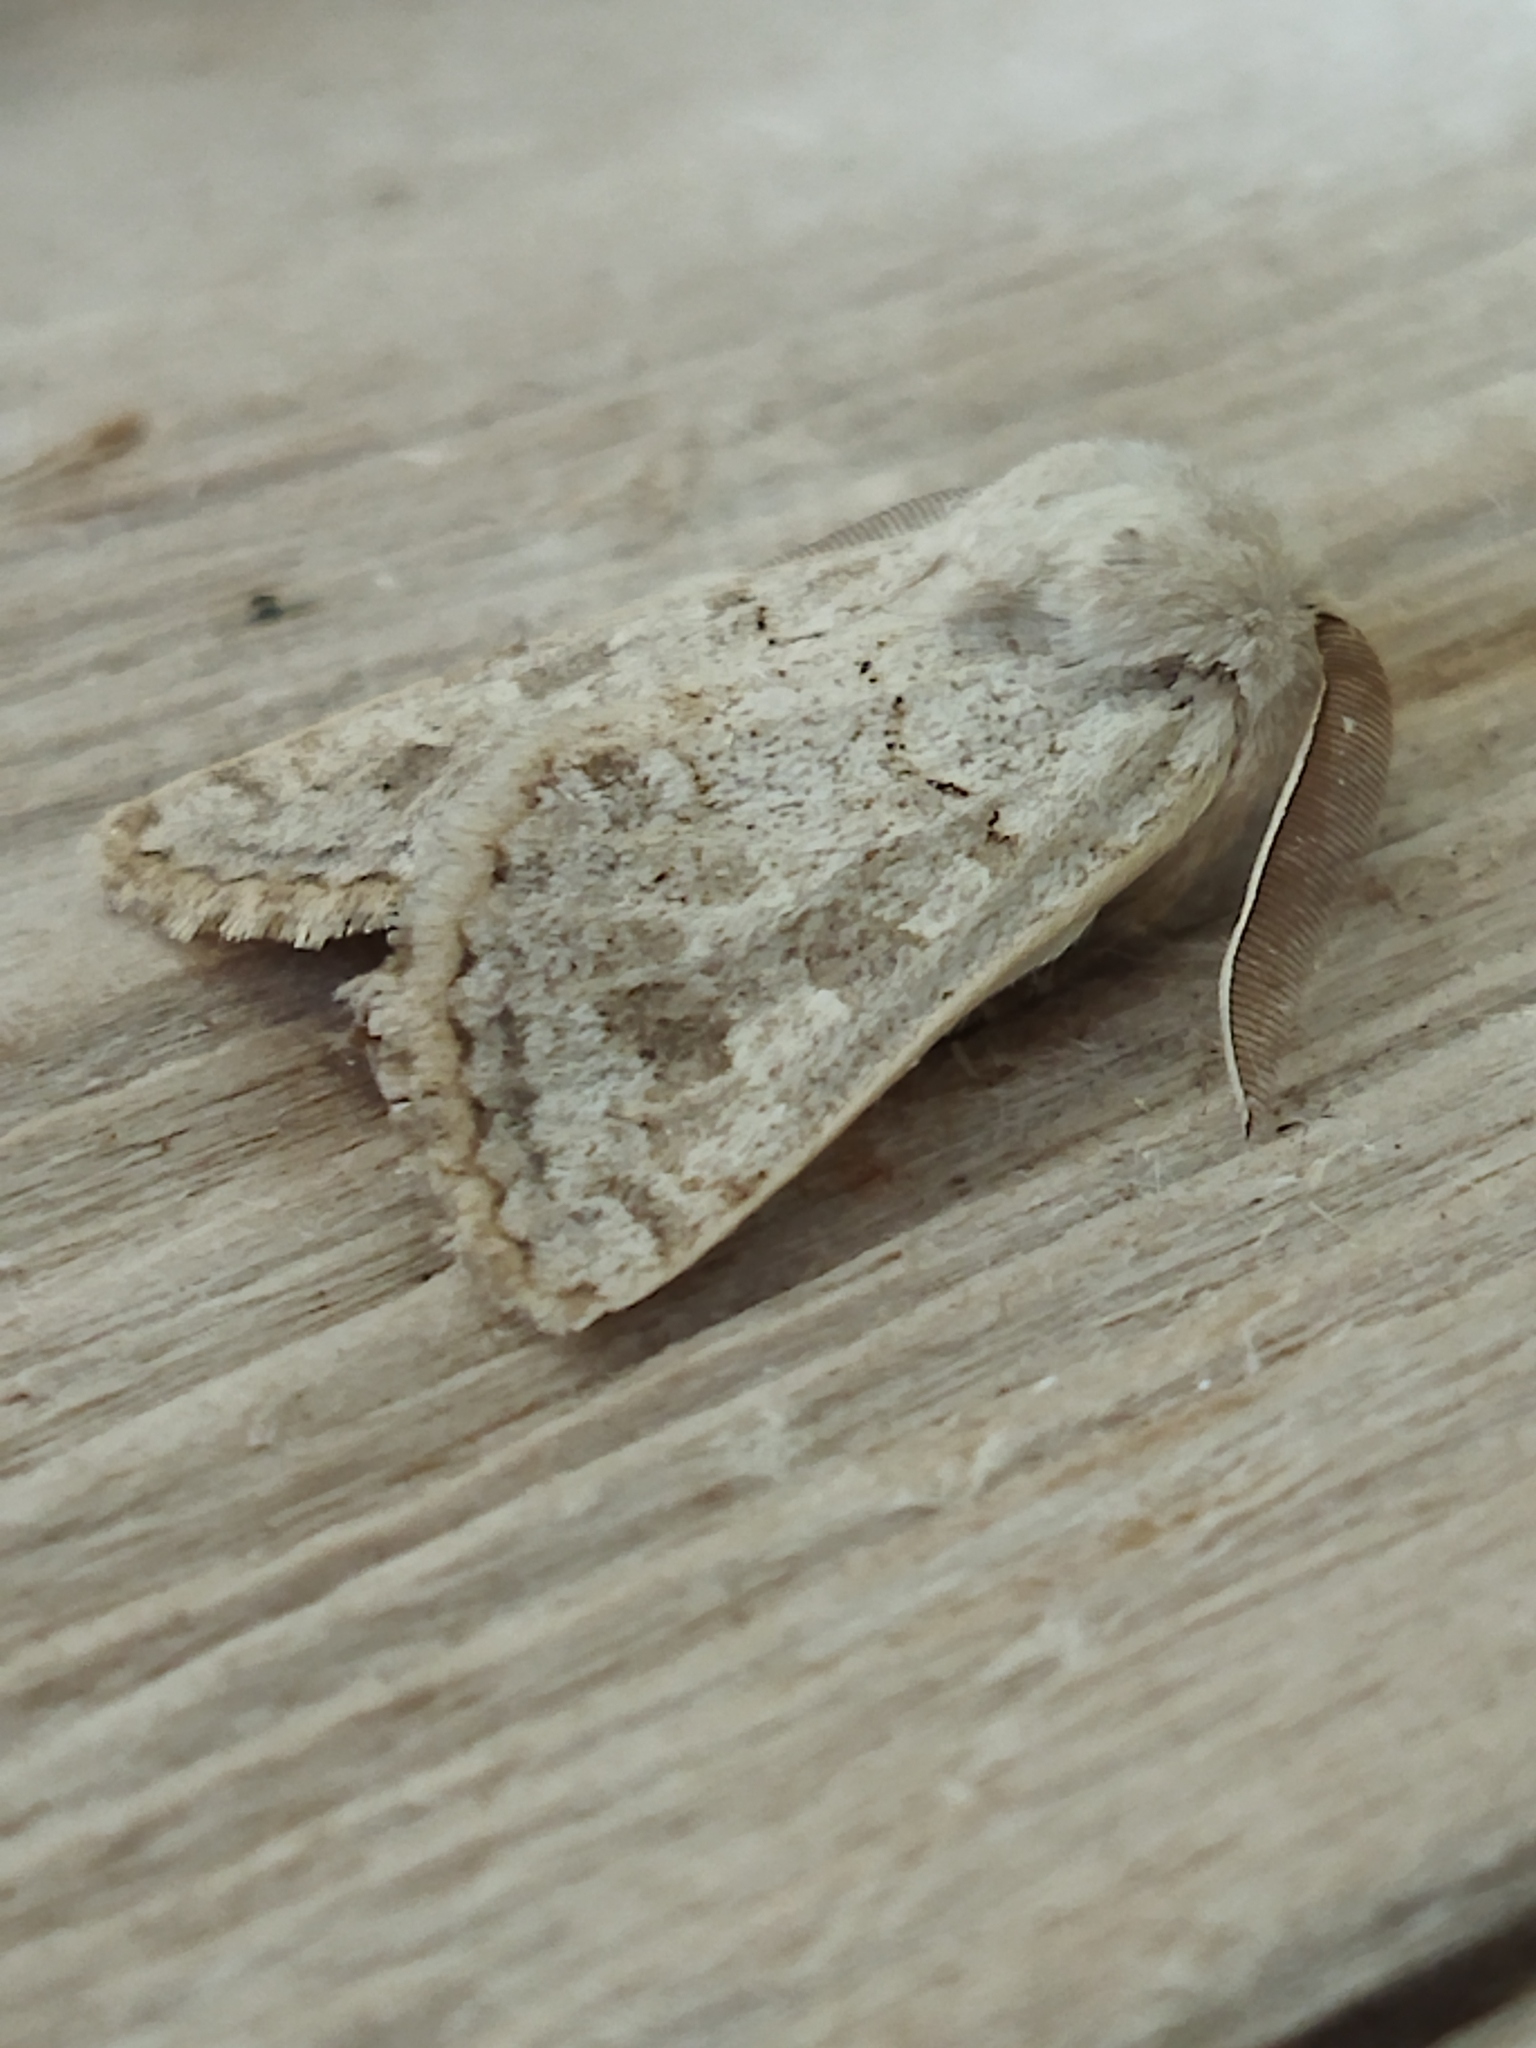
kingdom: Animalia
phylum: Arthropoda
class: Insecta
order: Lepidoptera
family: Noctuidae
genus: Episema
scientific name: Episema lederi
